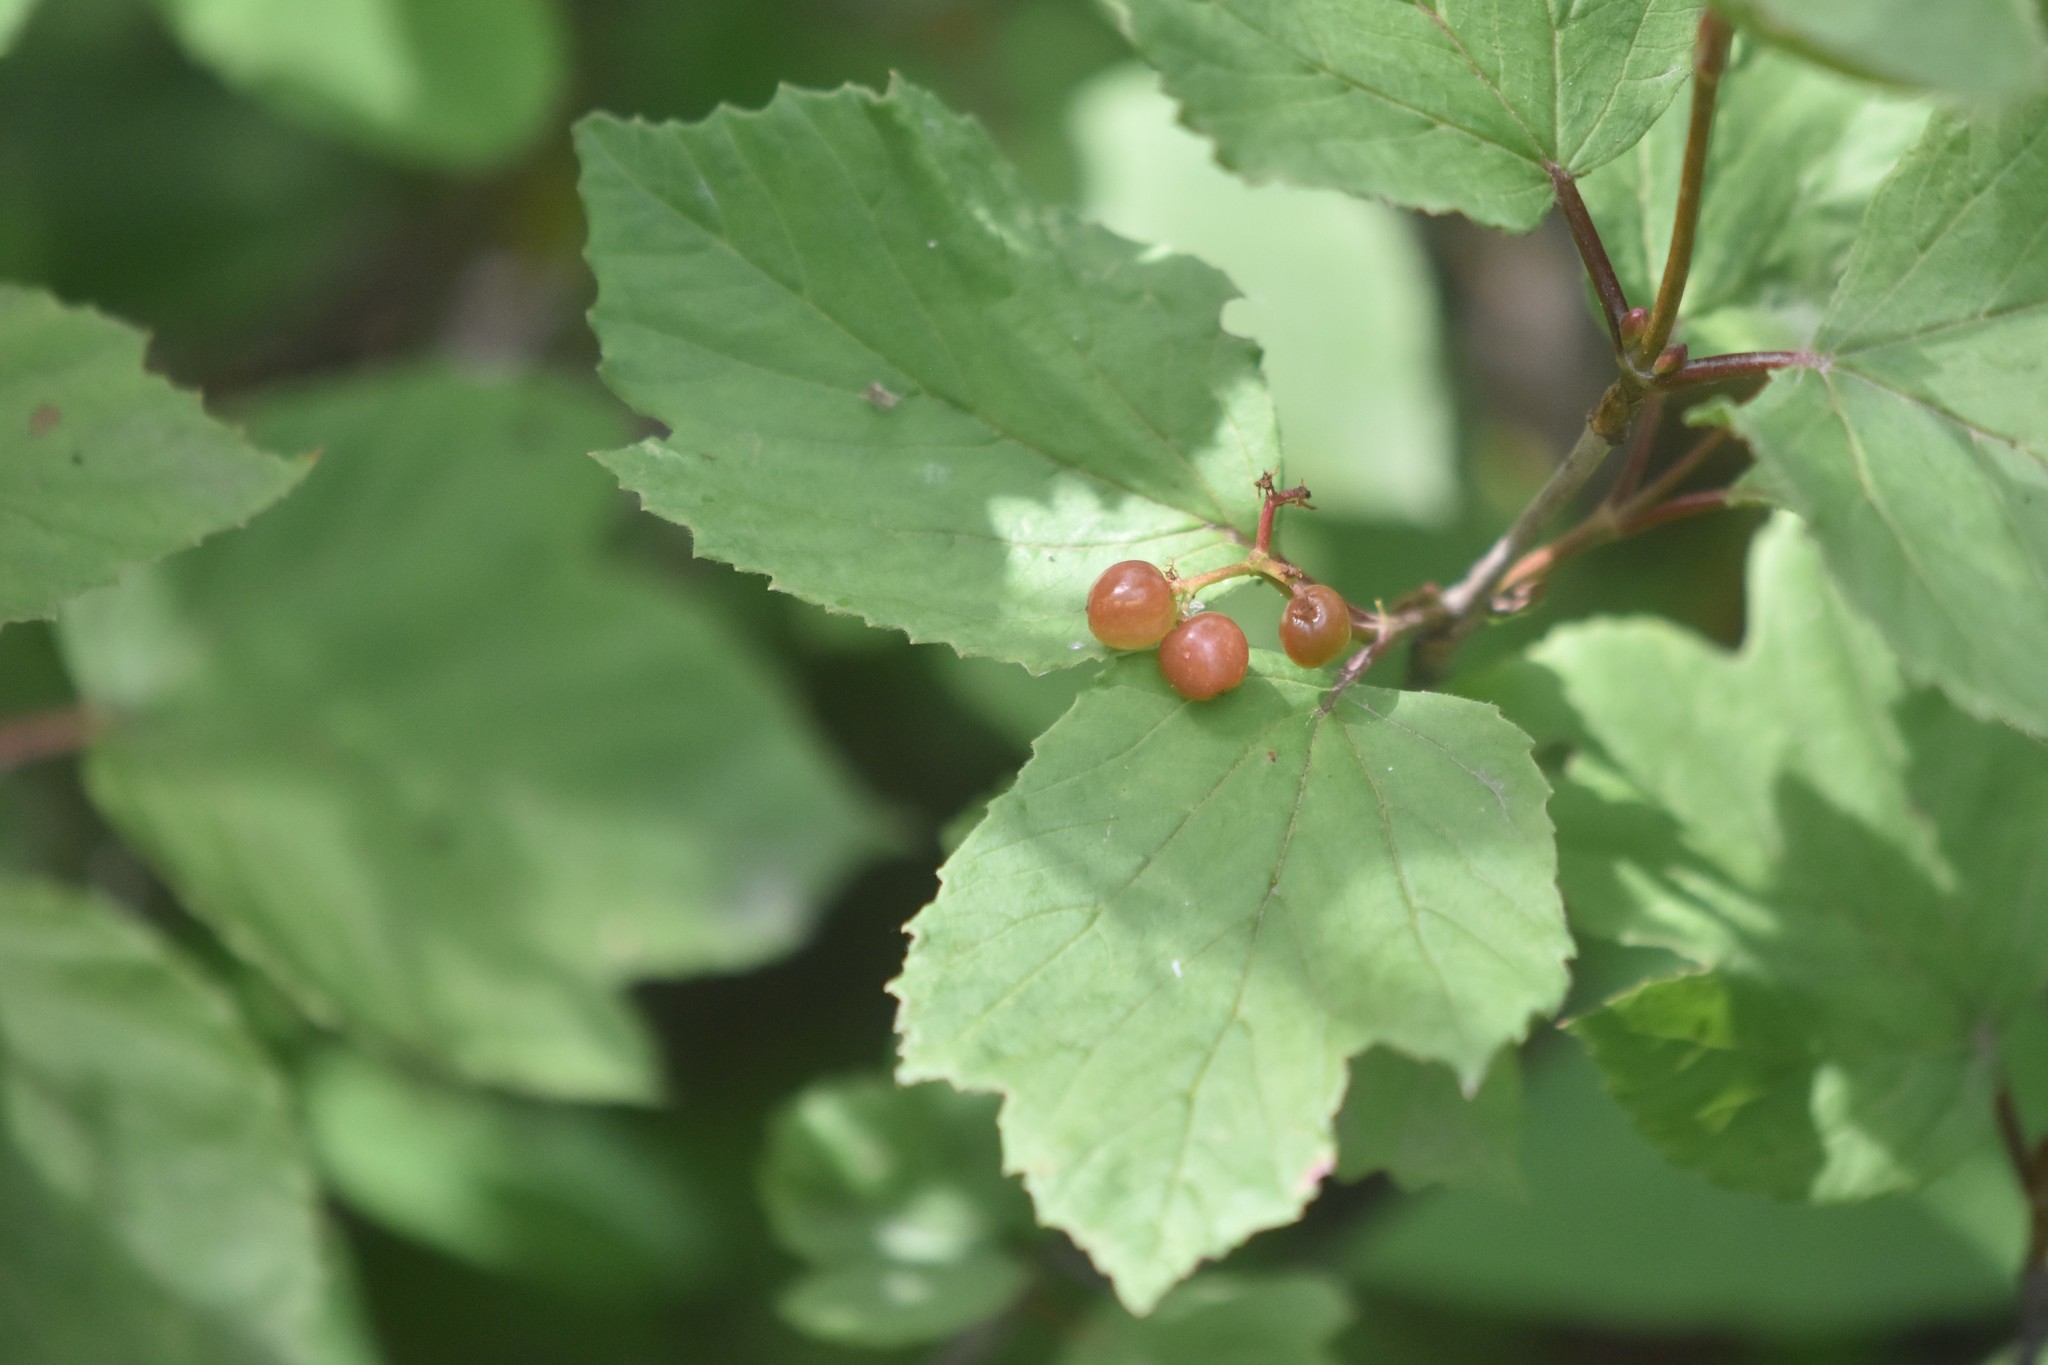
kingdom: Plantae
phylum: Tracheophyta
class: Magnoliopsida
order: Dipsacales
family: Viburnaceae
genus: Viburnum
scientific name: Viburnum edule
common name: Mooseberry
